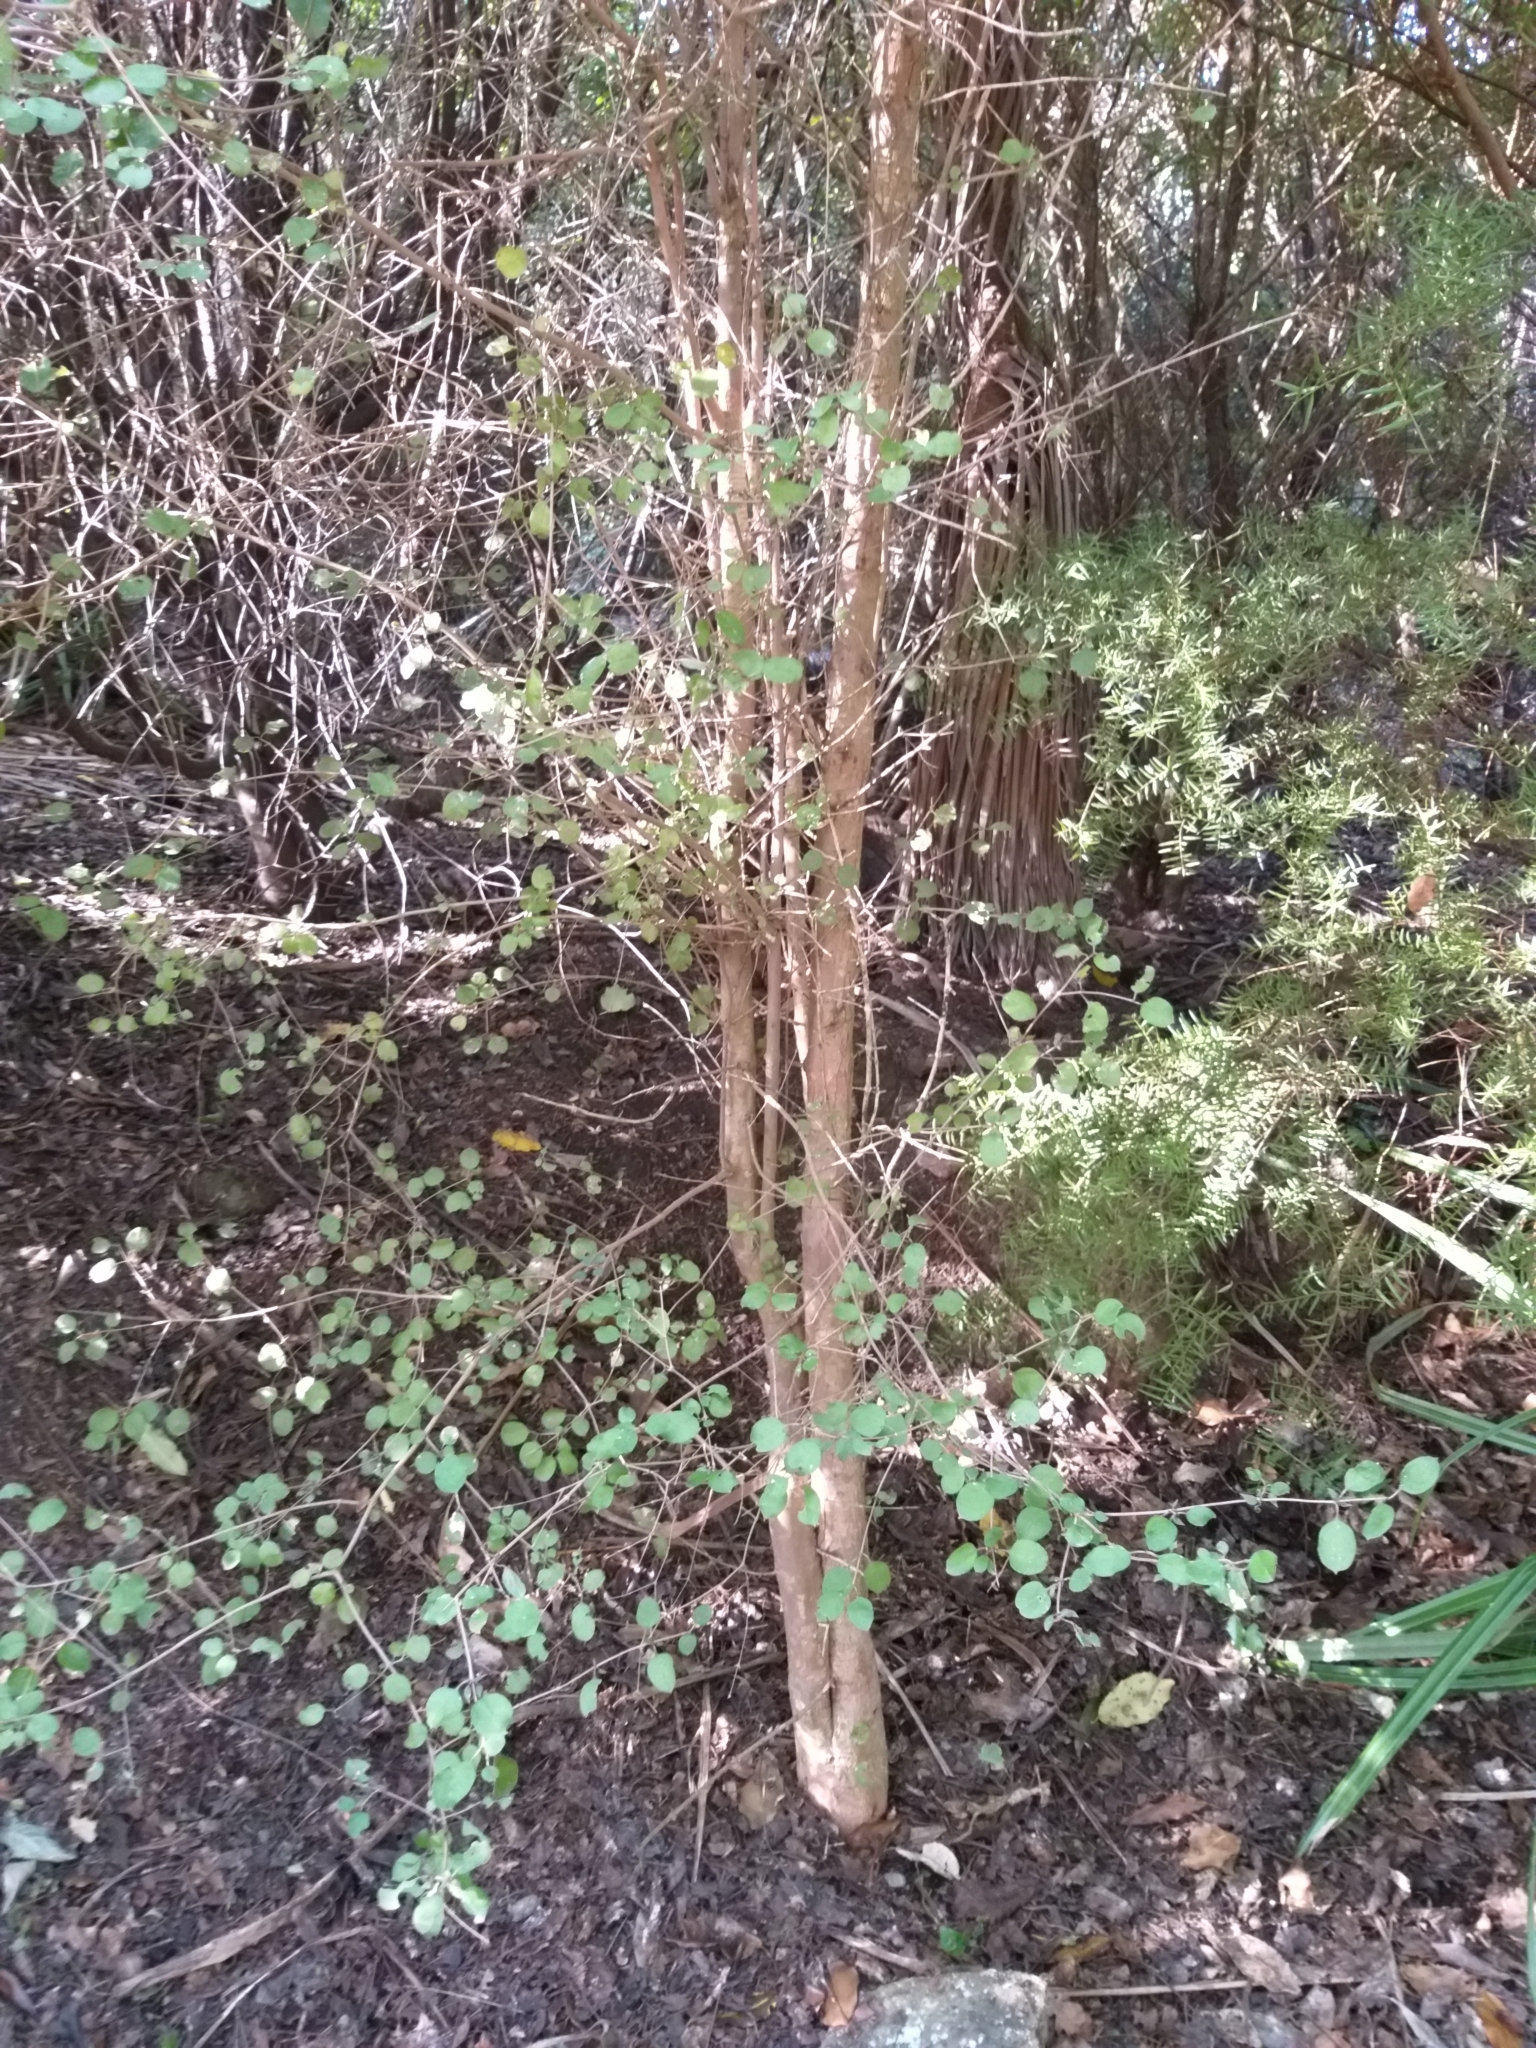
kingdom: Plantae
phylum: Tracheophyta
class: Magnoliopsida
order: Gentianales
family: Rubiaceae
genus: Coprosma
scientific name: Coprosma rotundifolia
